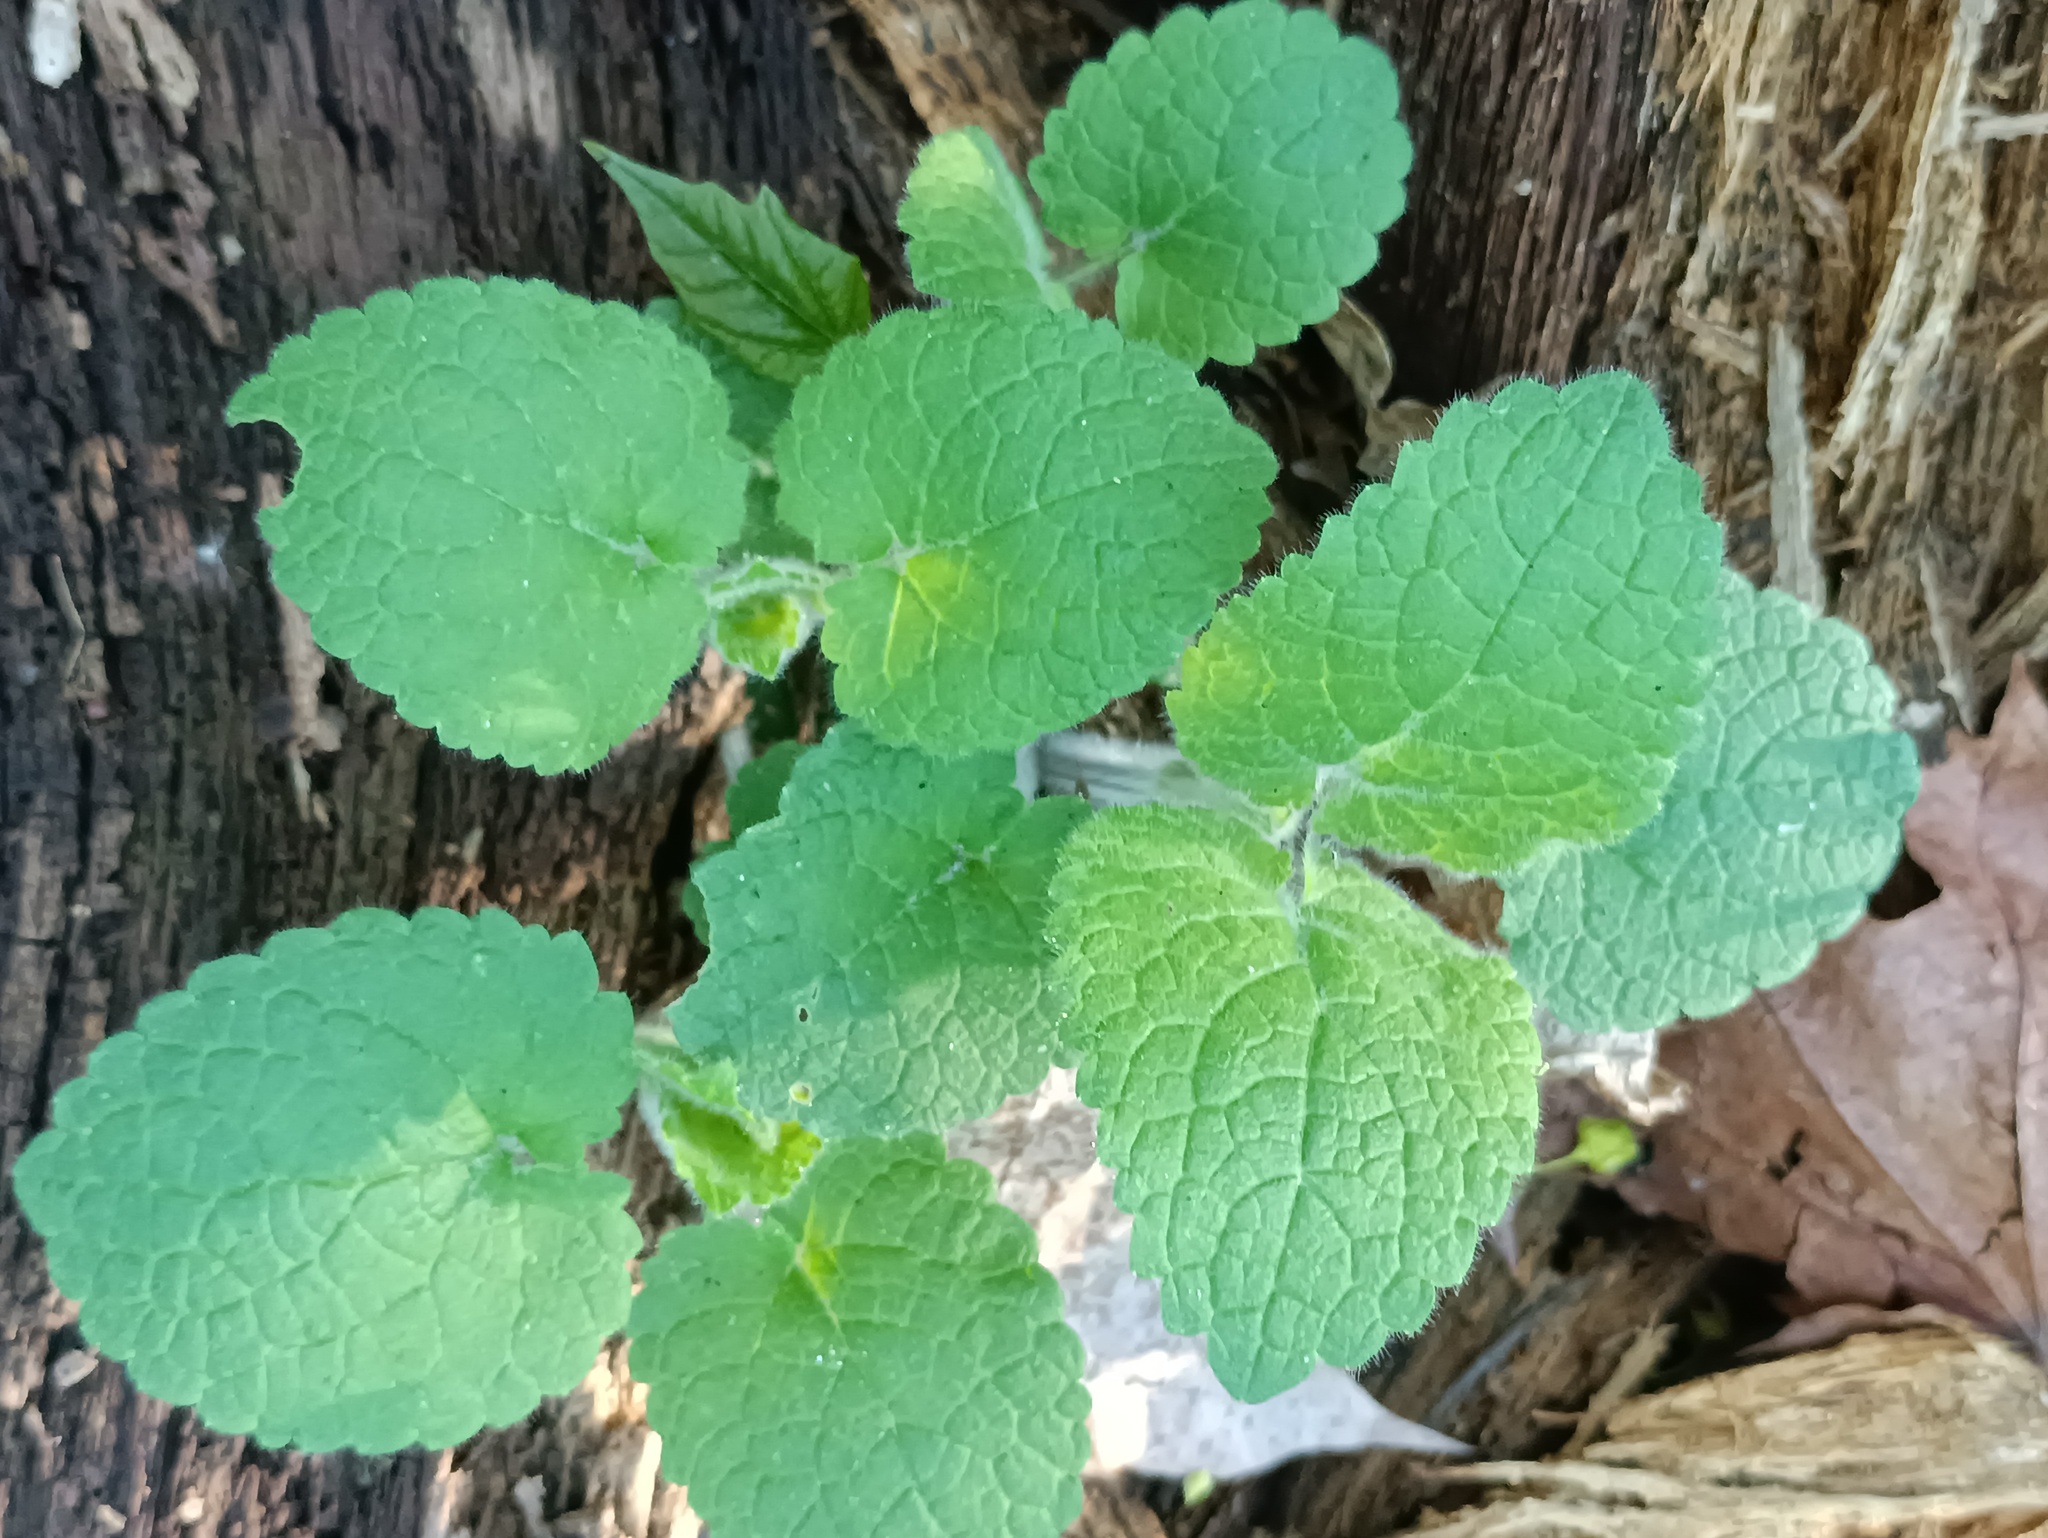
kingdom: Plantae
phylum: Tracheophyta
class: Magnoliopsida
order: Lamiales
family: Lamiaceae
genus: Stachys
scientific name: Stachys sylvatica
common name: Hedge woundwort
